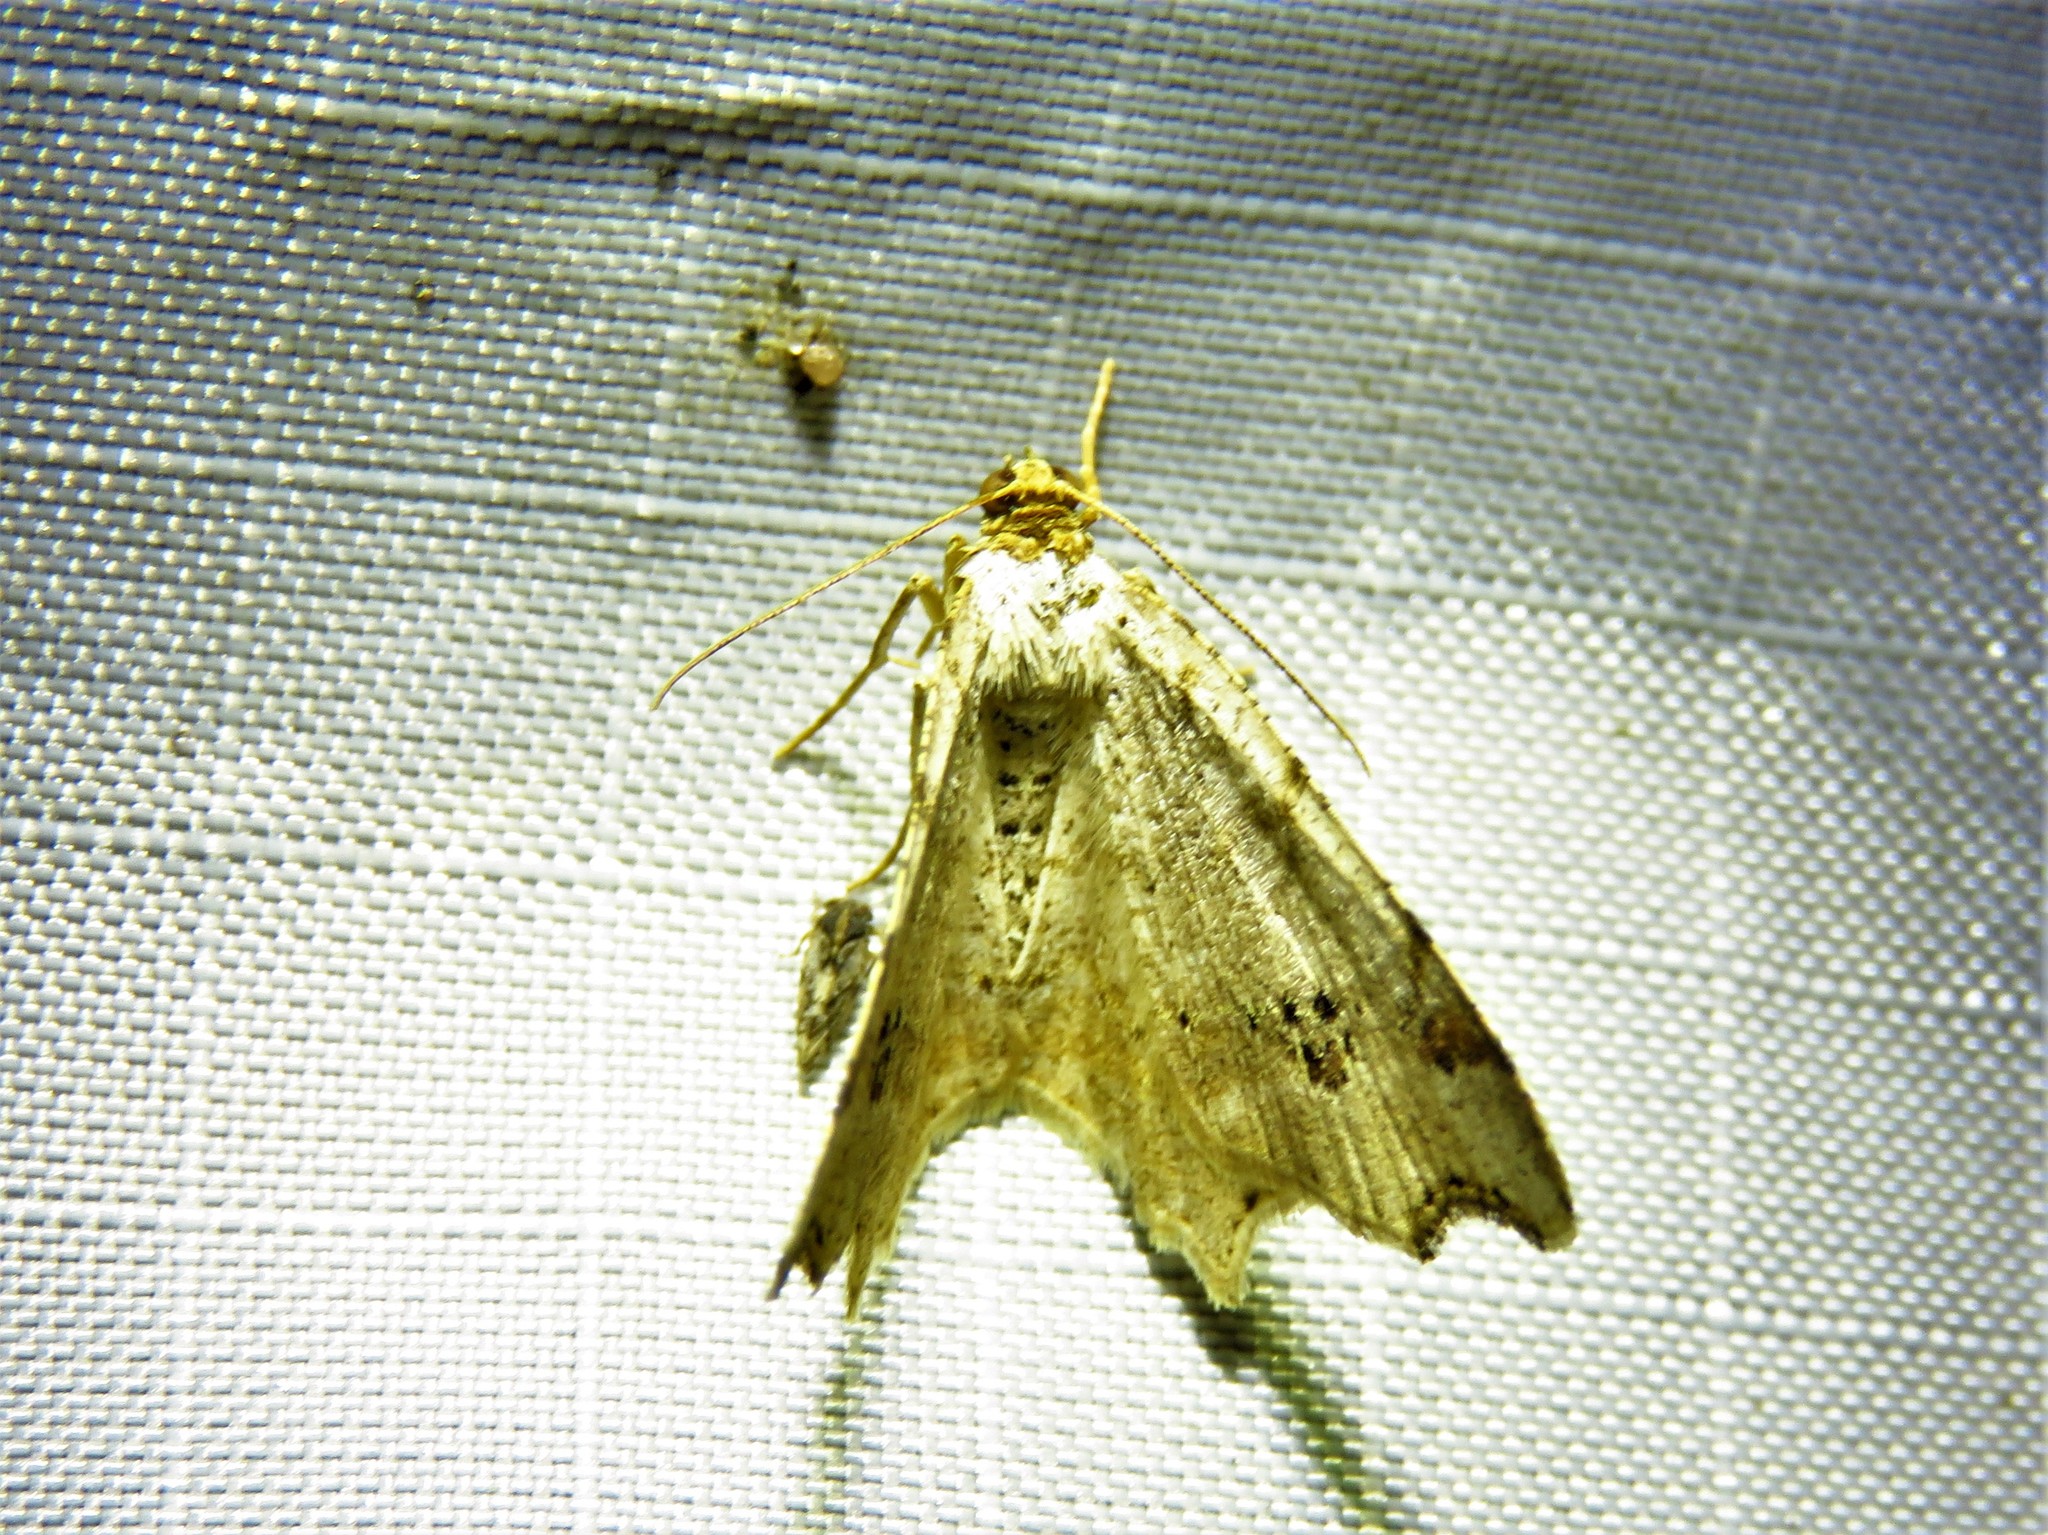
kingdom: Animalia
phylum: Arthropoda
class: Insecta
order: Lepidoptera
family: Geometridae
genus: Macaria
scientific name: Macaria aemulataria
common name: Common angle
